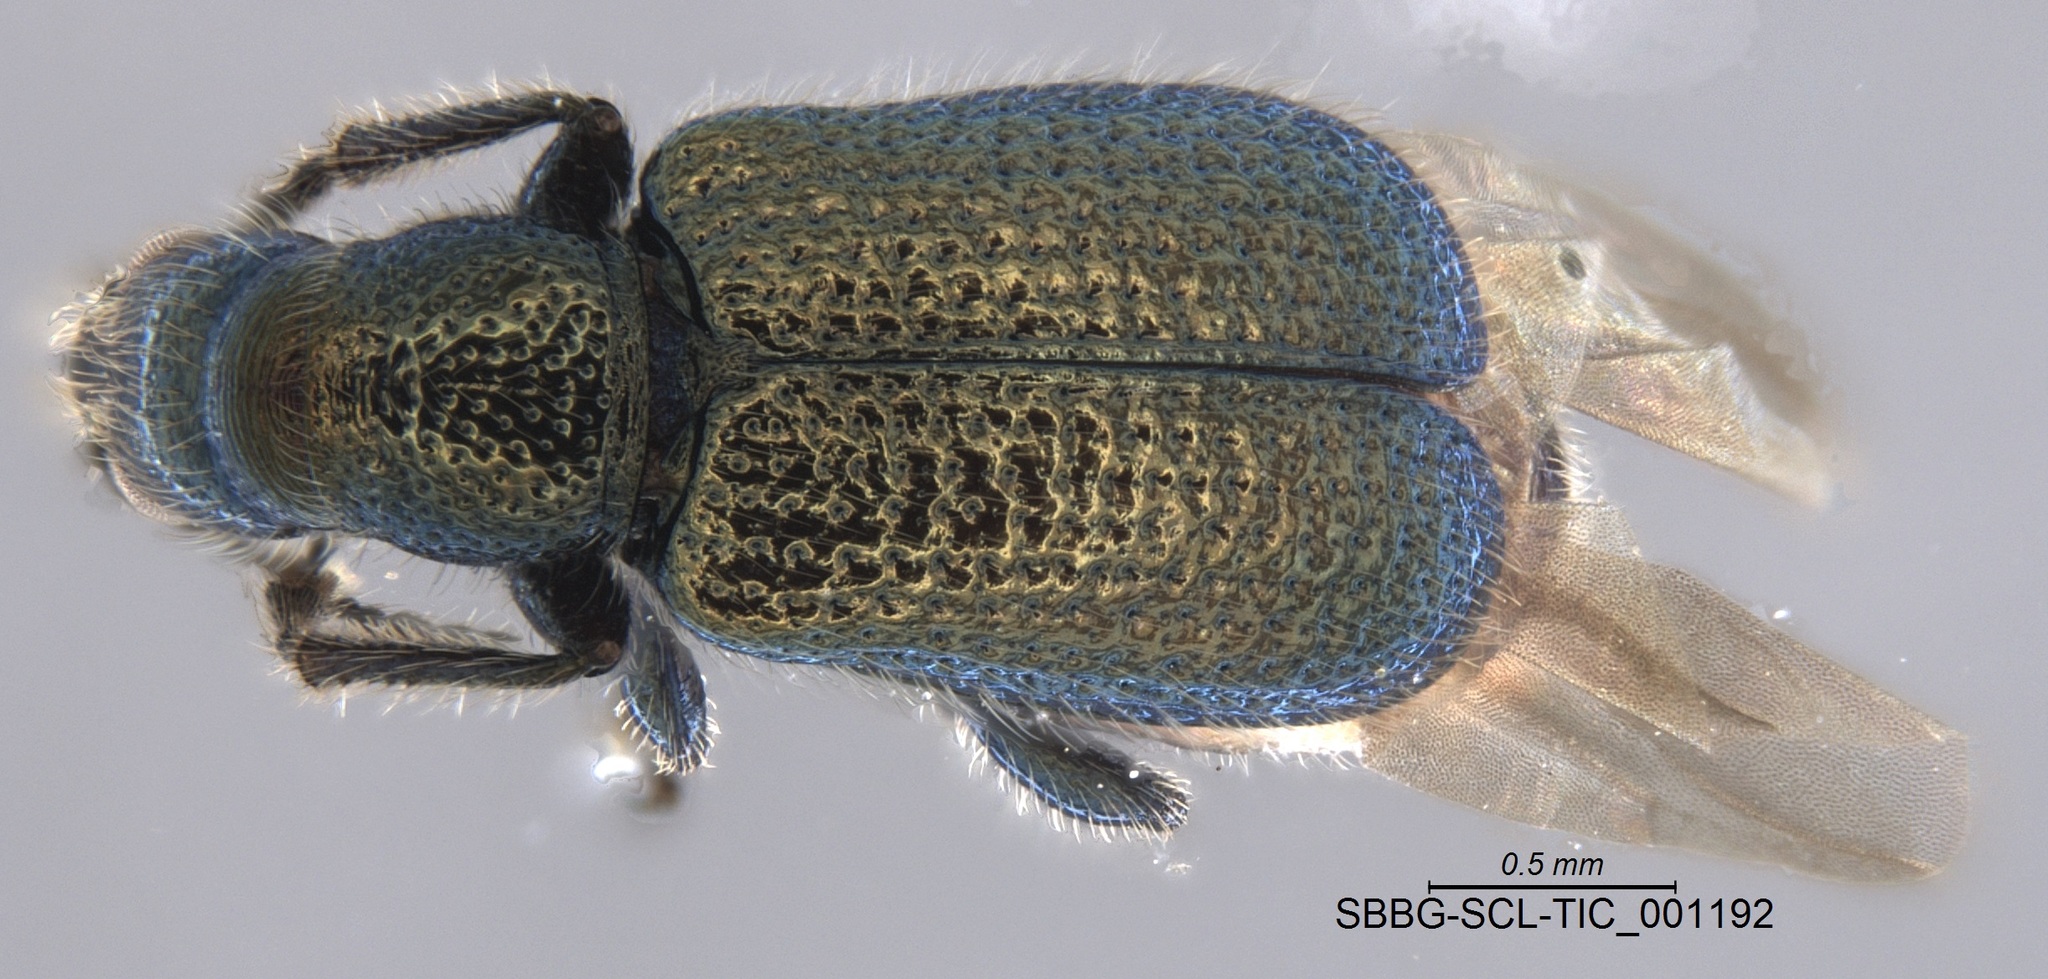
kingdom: Animalia
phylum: Arthropoda
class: Insecta
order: Coleoptera
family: Attelabidae
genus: Deporaus
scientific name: Deporaus glastinus
